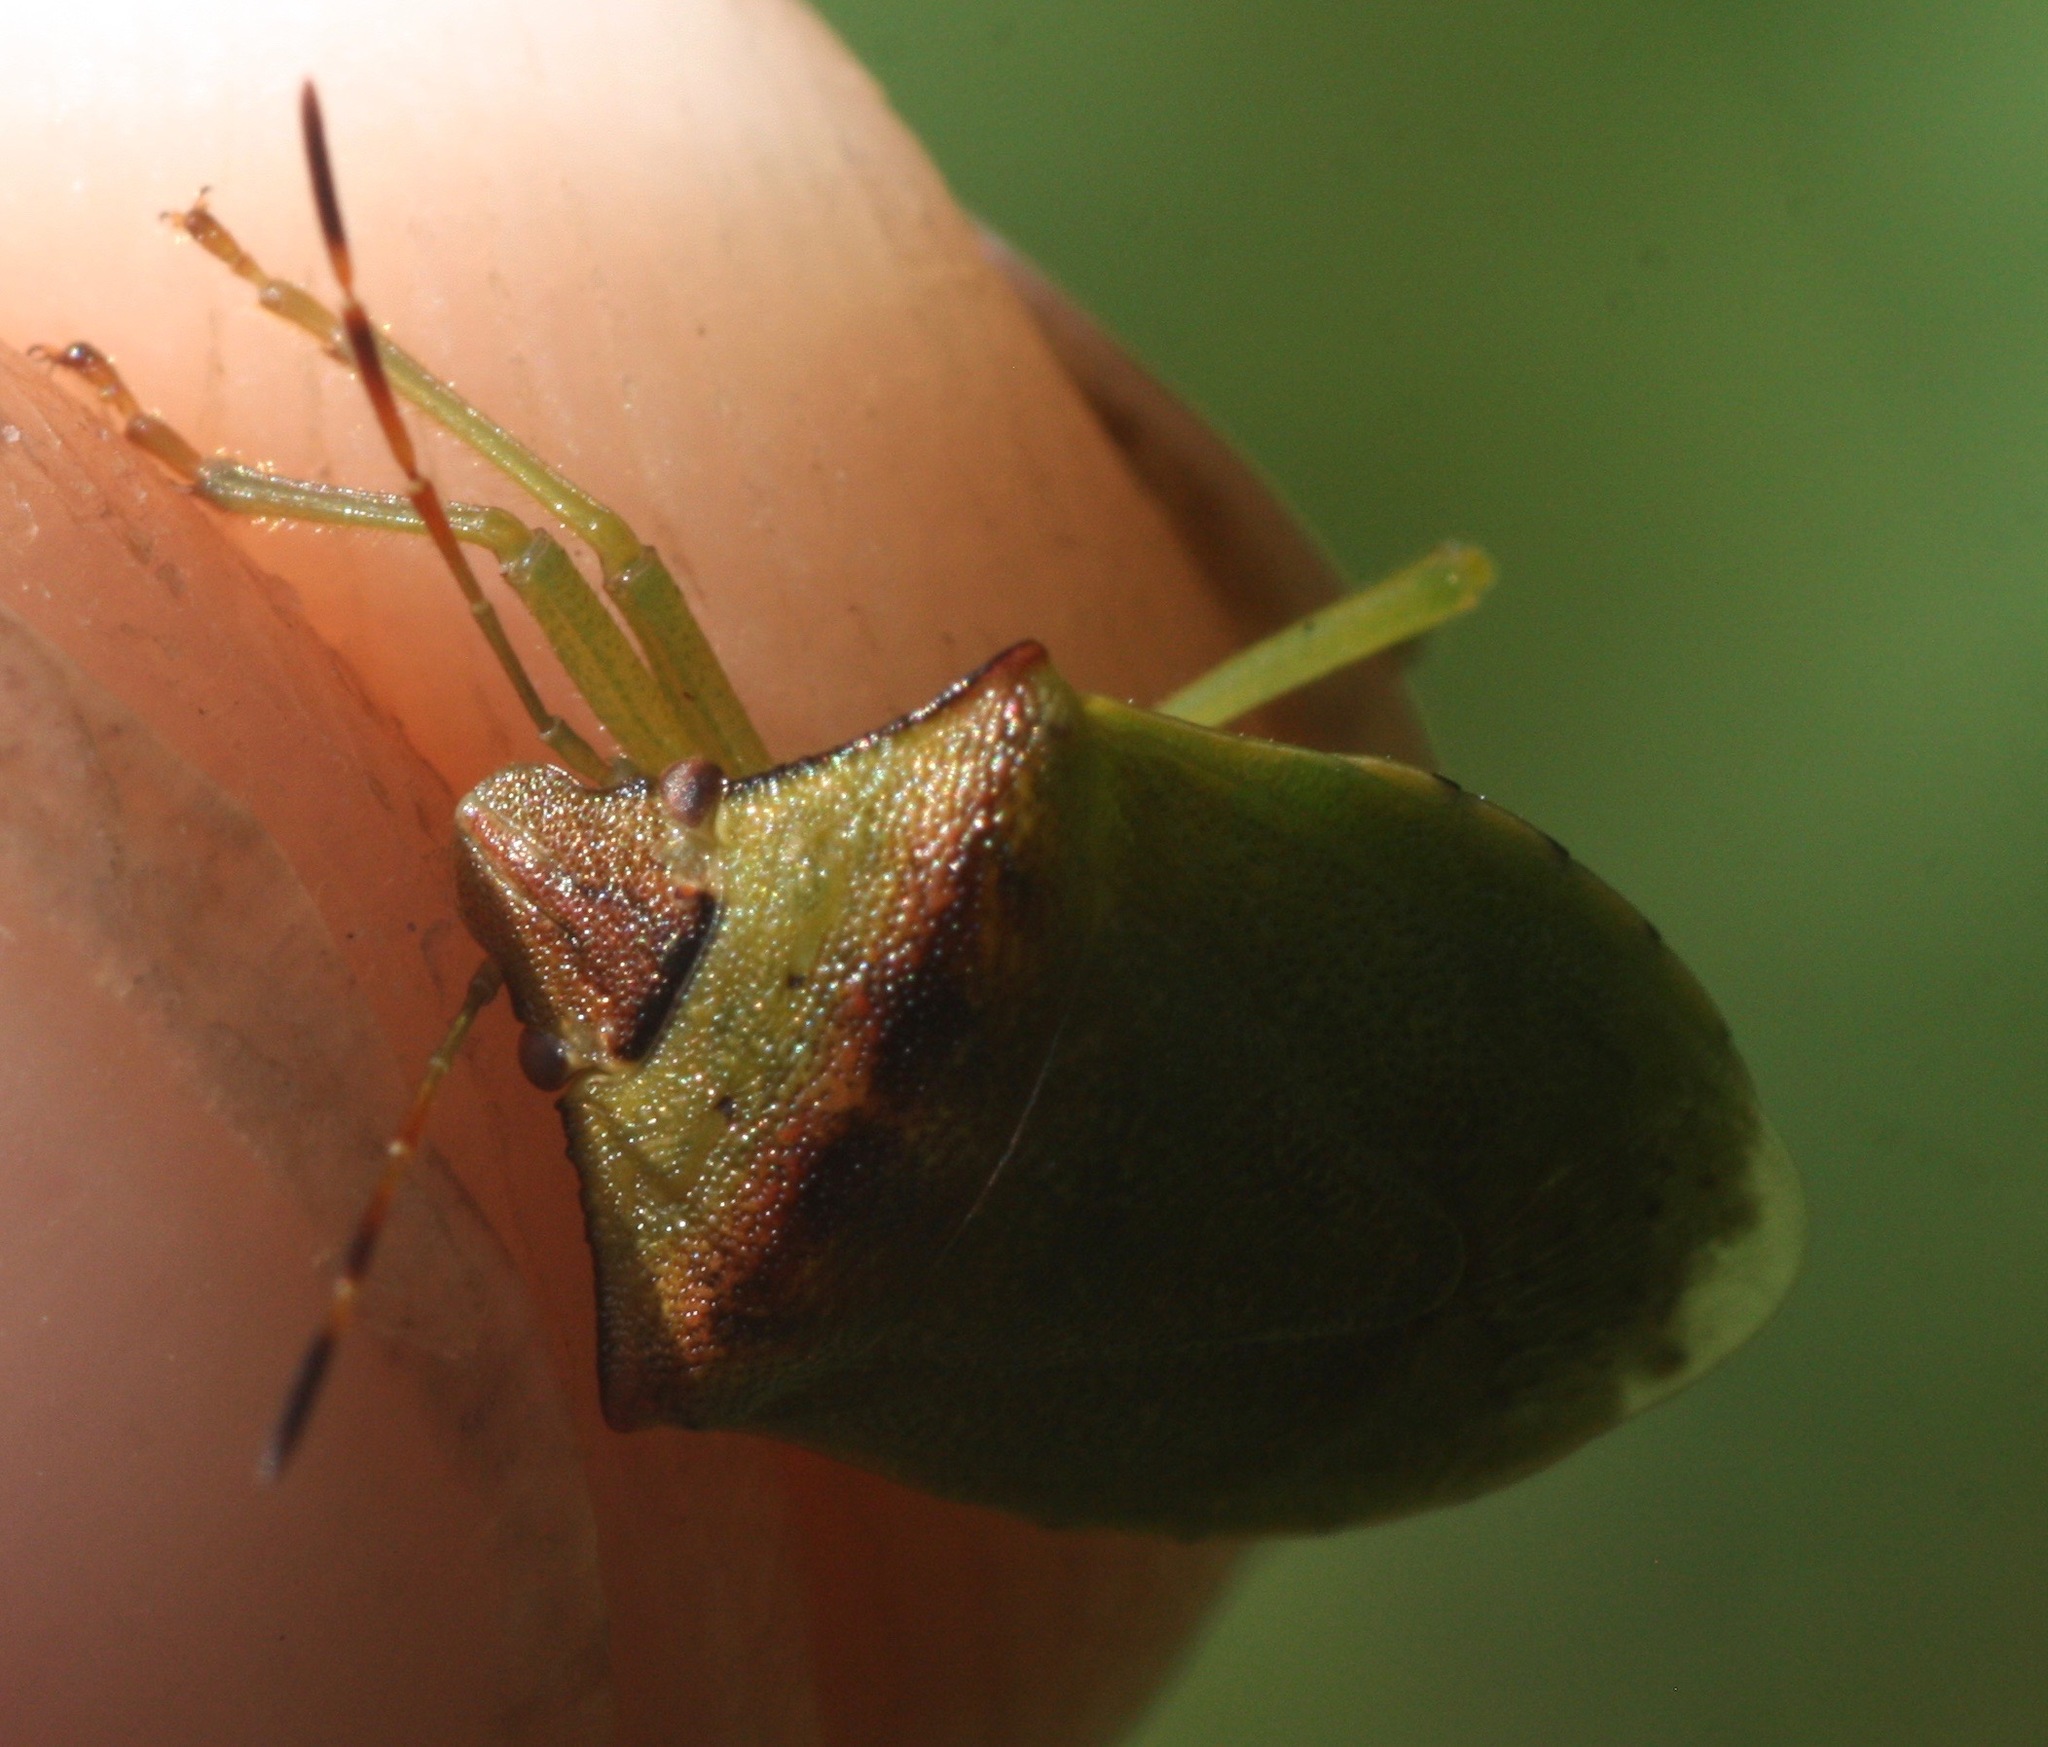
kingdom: Animalia
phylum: Arthropoda
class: Insecta
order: Hemiptera
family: Pentatomidae
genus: Thyanta
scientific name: Thyanta calceata
